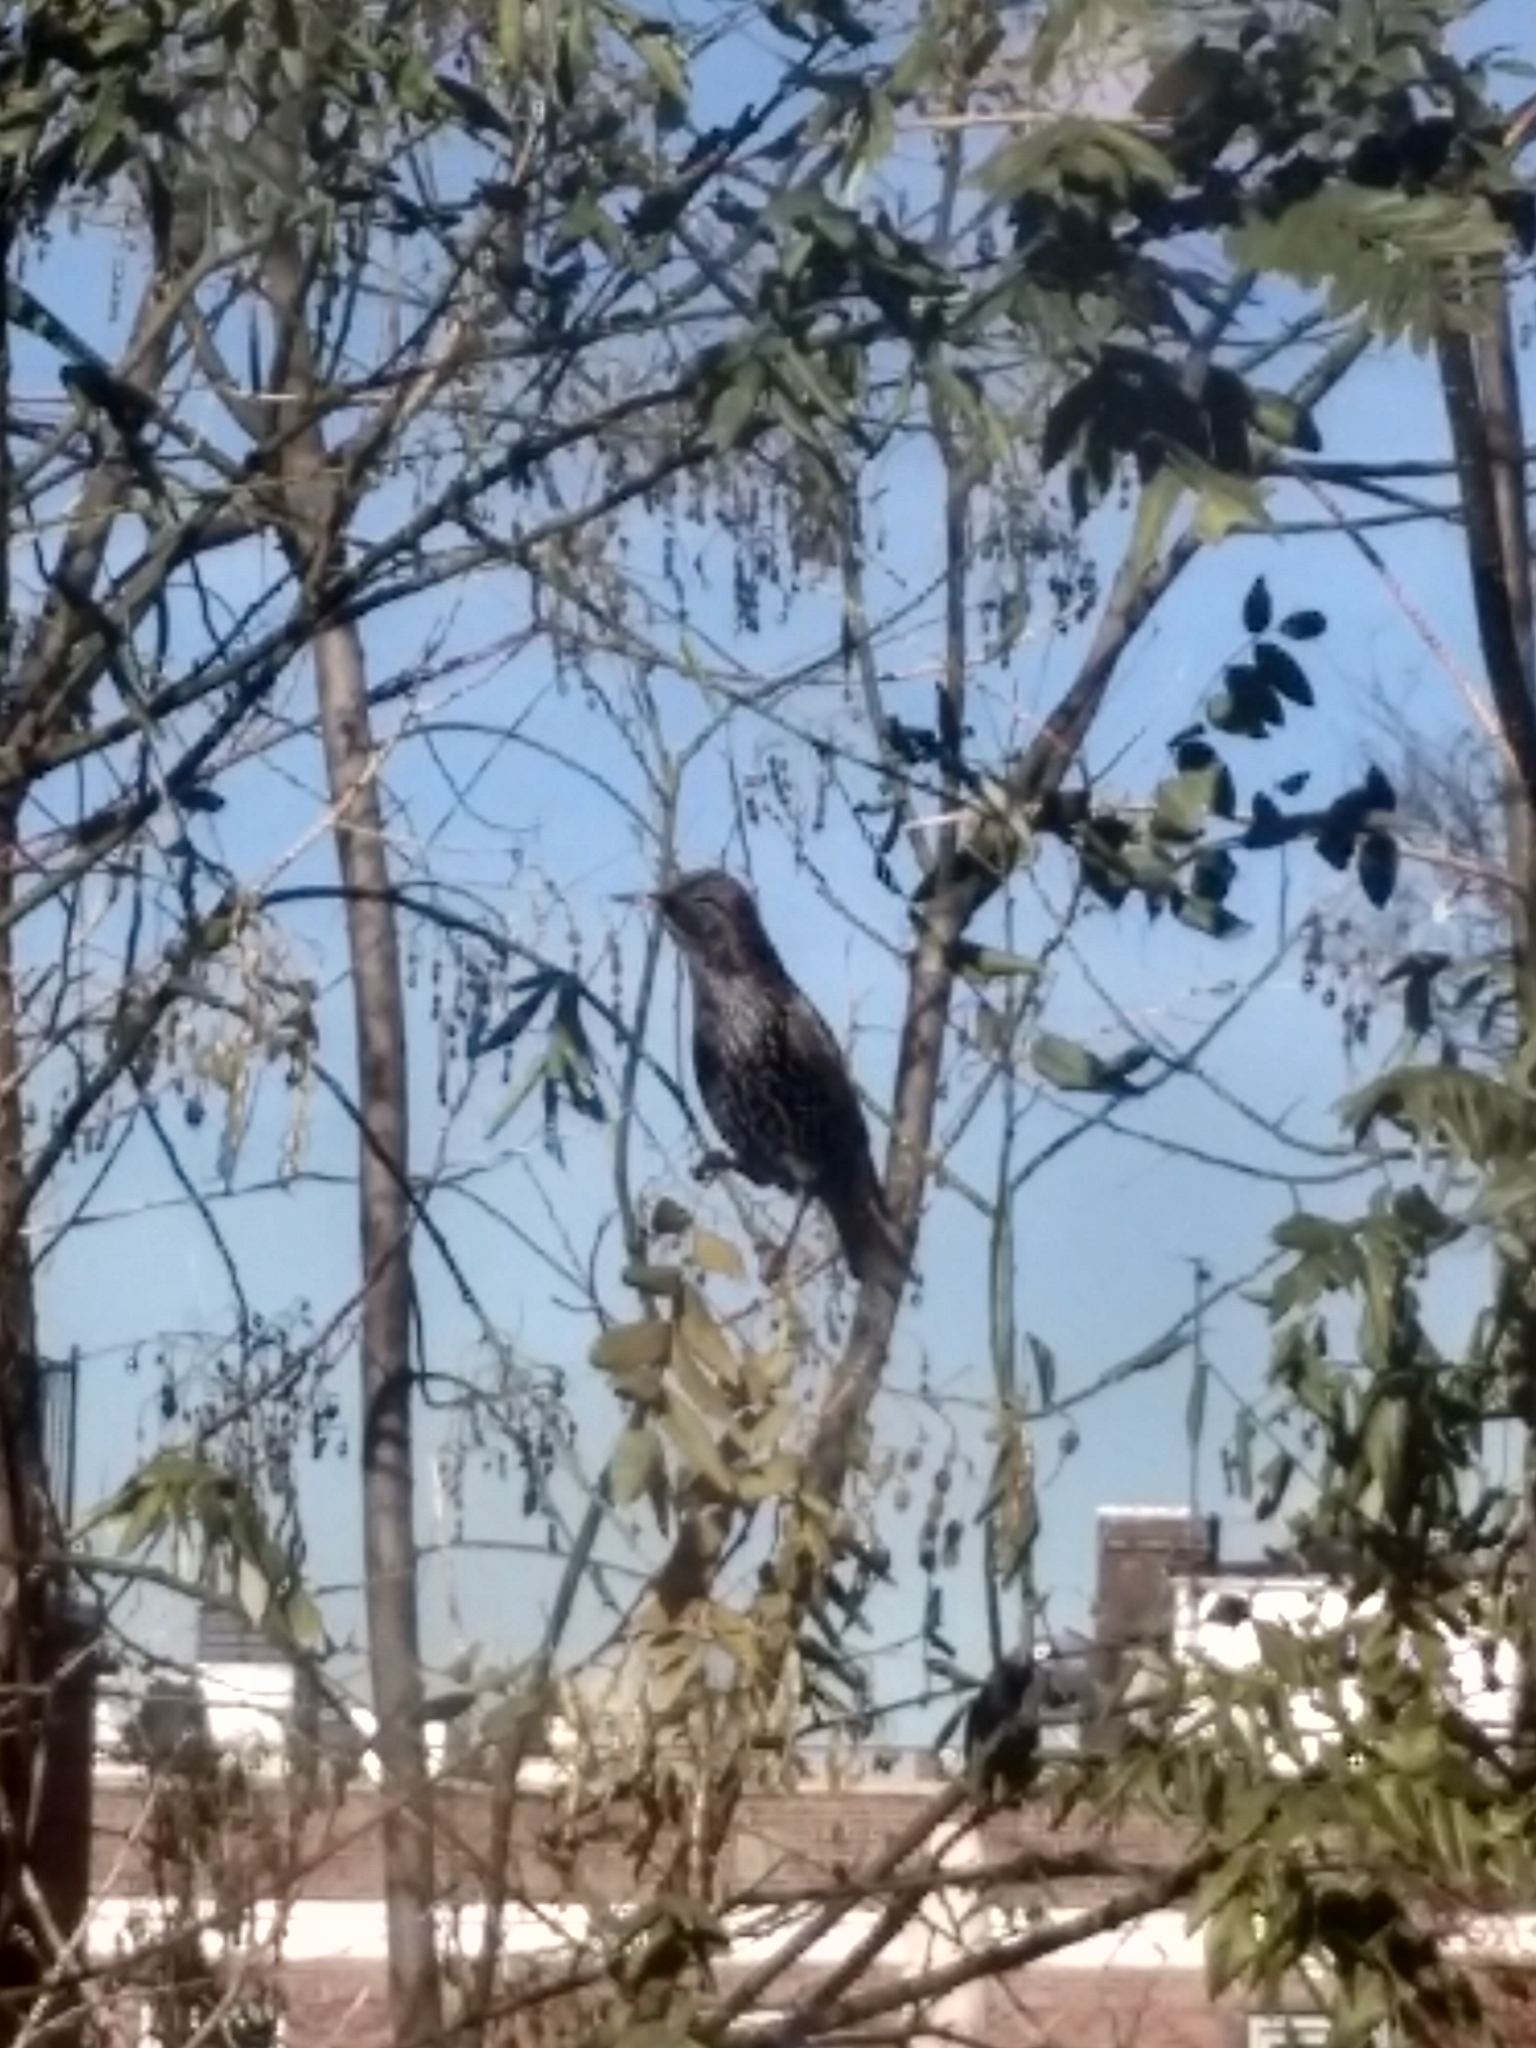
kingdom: Animalia
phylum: Chordata
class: Aves
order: Passeriformes
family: Sturnidae
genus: Sturnus
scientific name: Sturnus vulgaris
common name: Common starling
